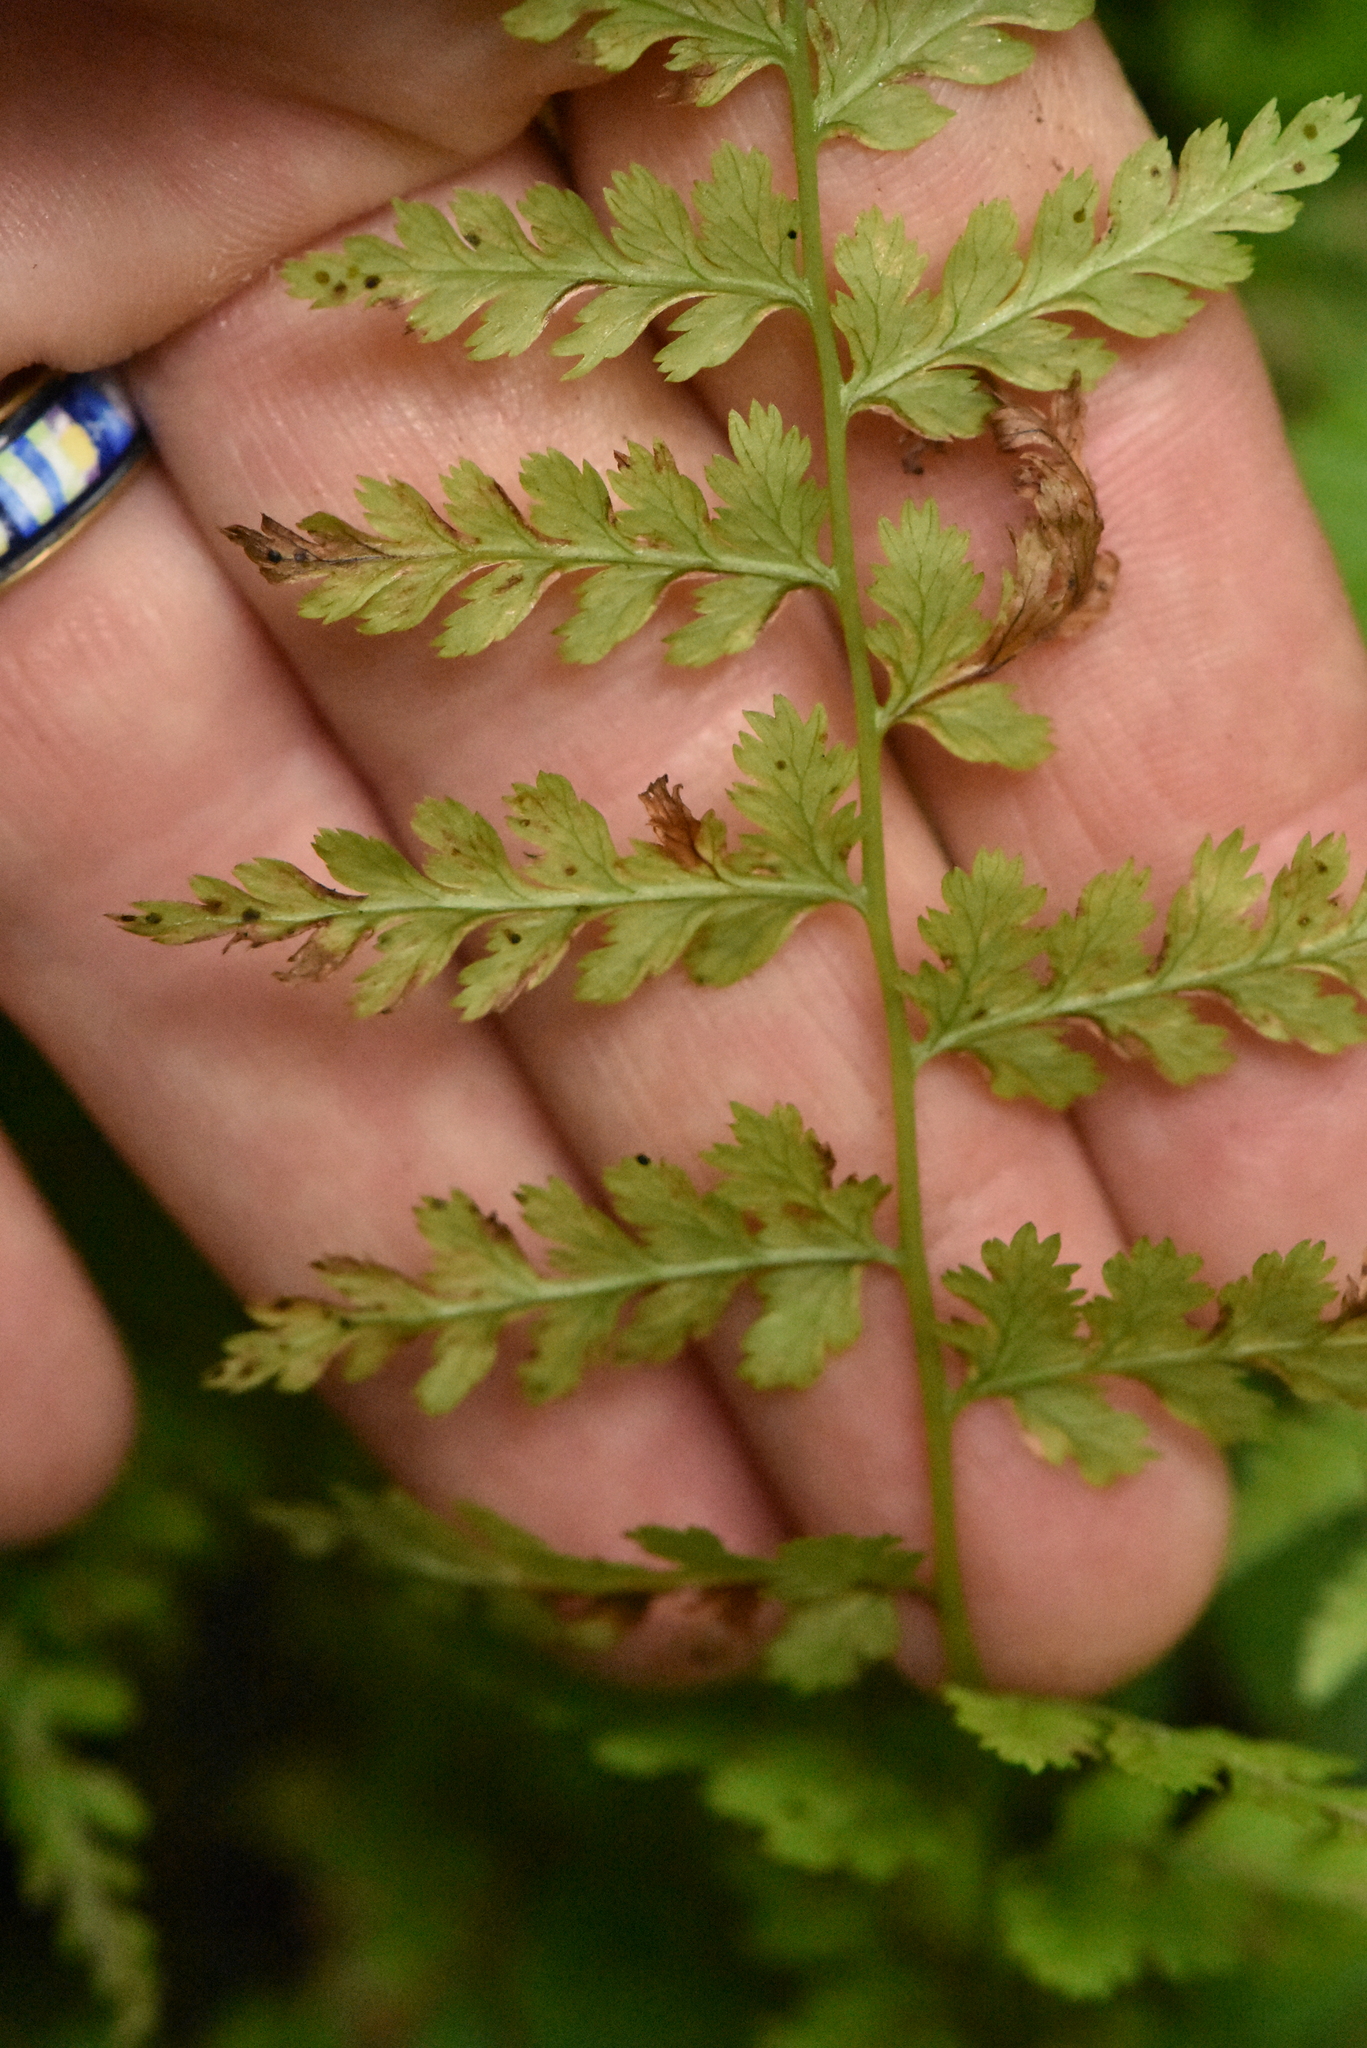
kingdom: Plantae
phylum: Tracheophyta
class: Polypodiopsida
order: Polypodiales
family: Athyriaceae
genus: Athyrium
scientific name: Athyrium filix-femina
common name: Lady fern
